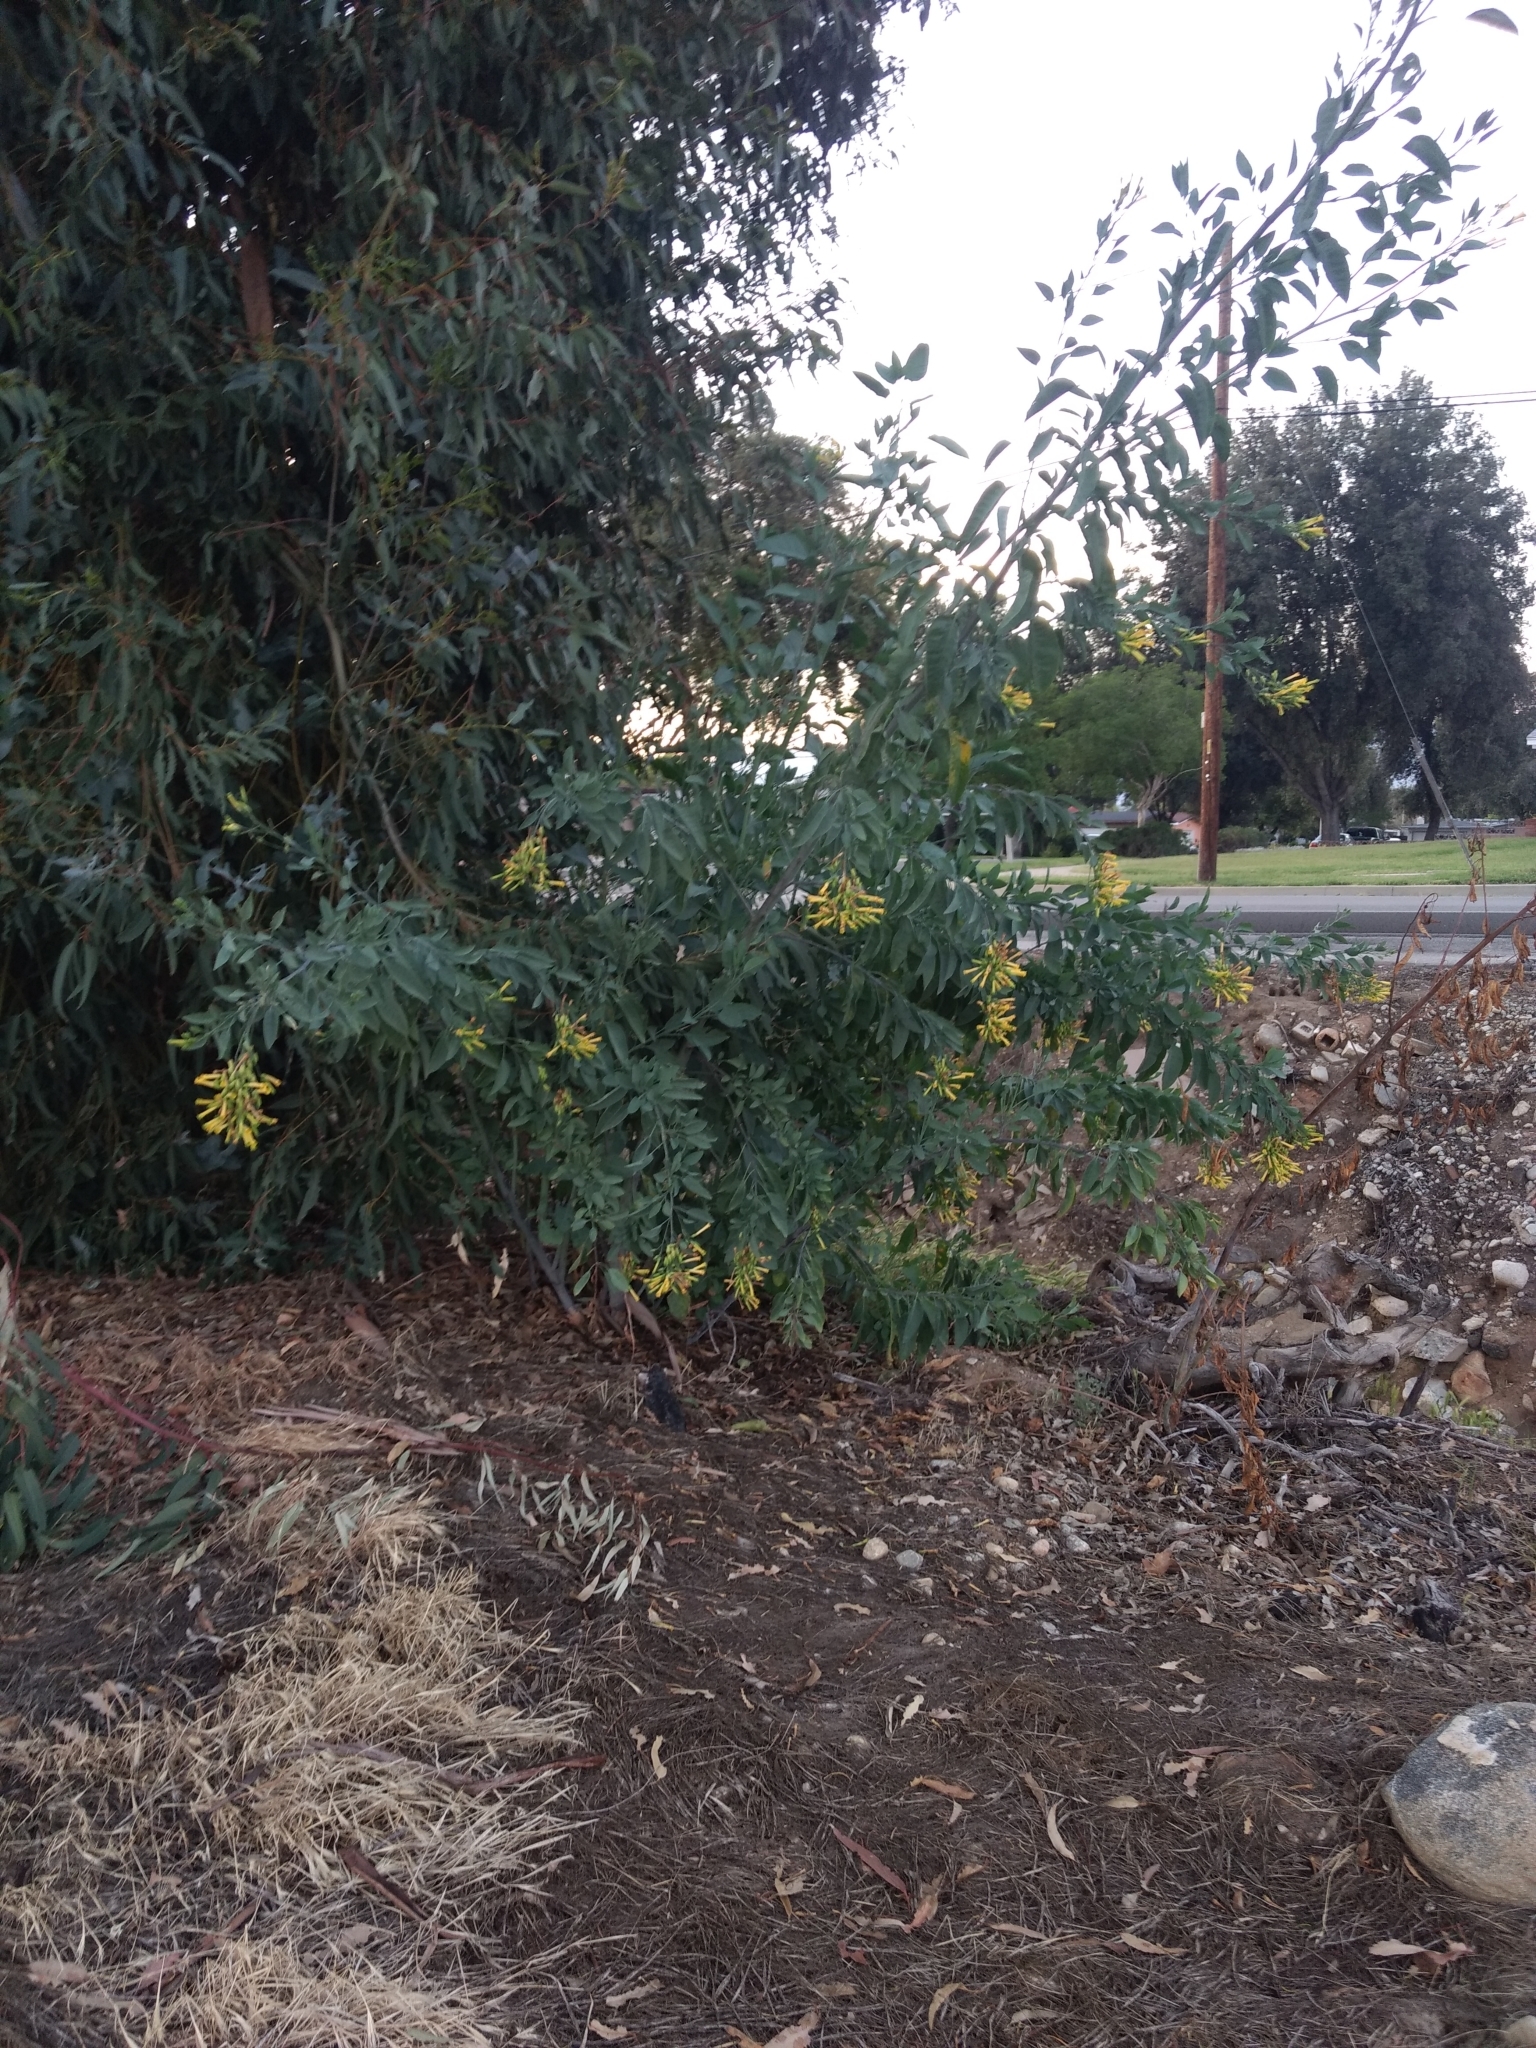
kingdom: Plantae
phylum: Tracheophyta
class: Magnoliopsida
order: Solanales
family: Solanaceae
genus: Nicotiana
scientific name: Nicotiana glauca
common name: Tree tobacco
